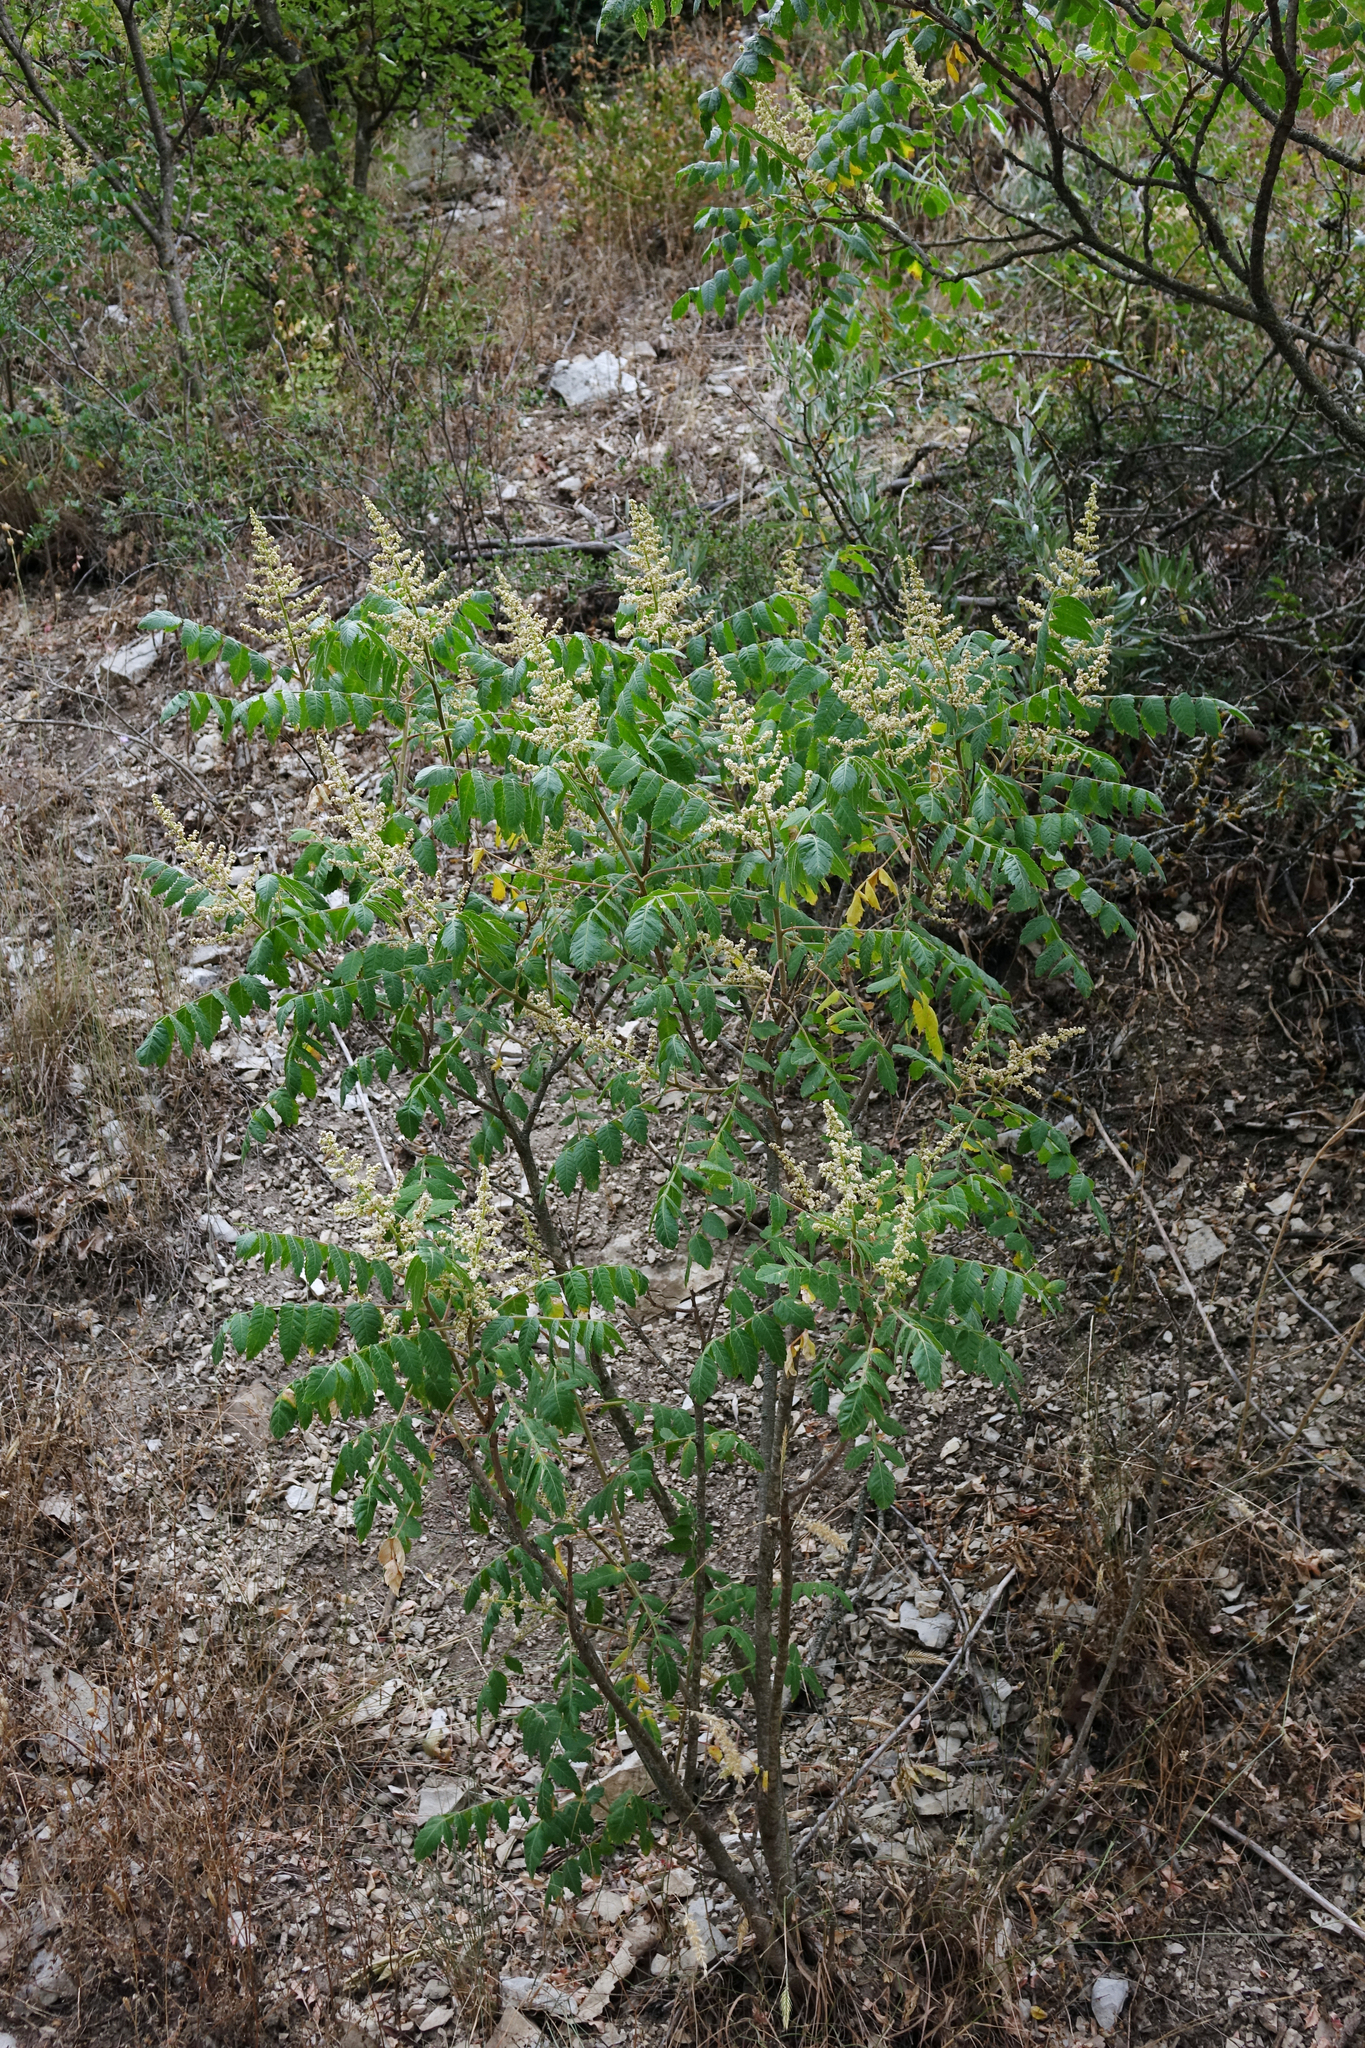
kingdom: Plantae
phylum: Tracheophyta
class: Magnoliopsida
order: Sapindales
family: Anacardiaceae
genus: Rhus
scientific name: Rhus coriaria
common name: Tanner's sumach
